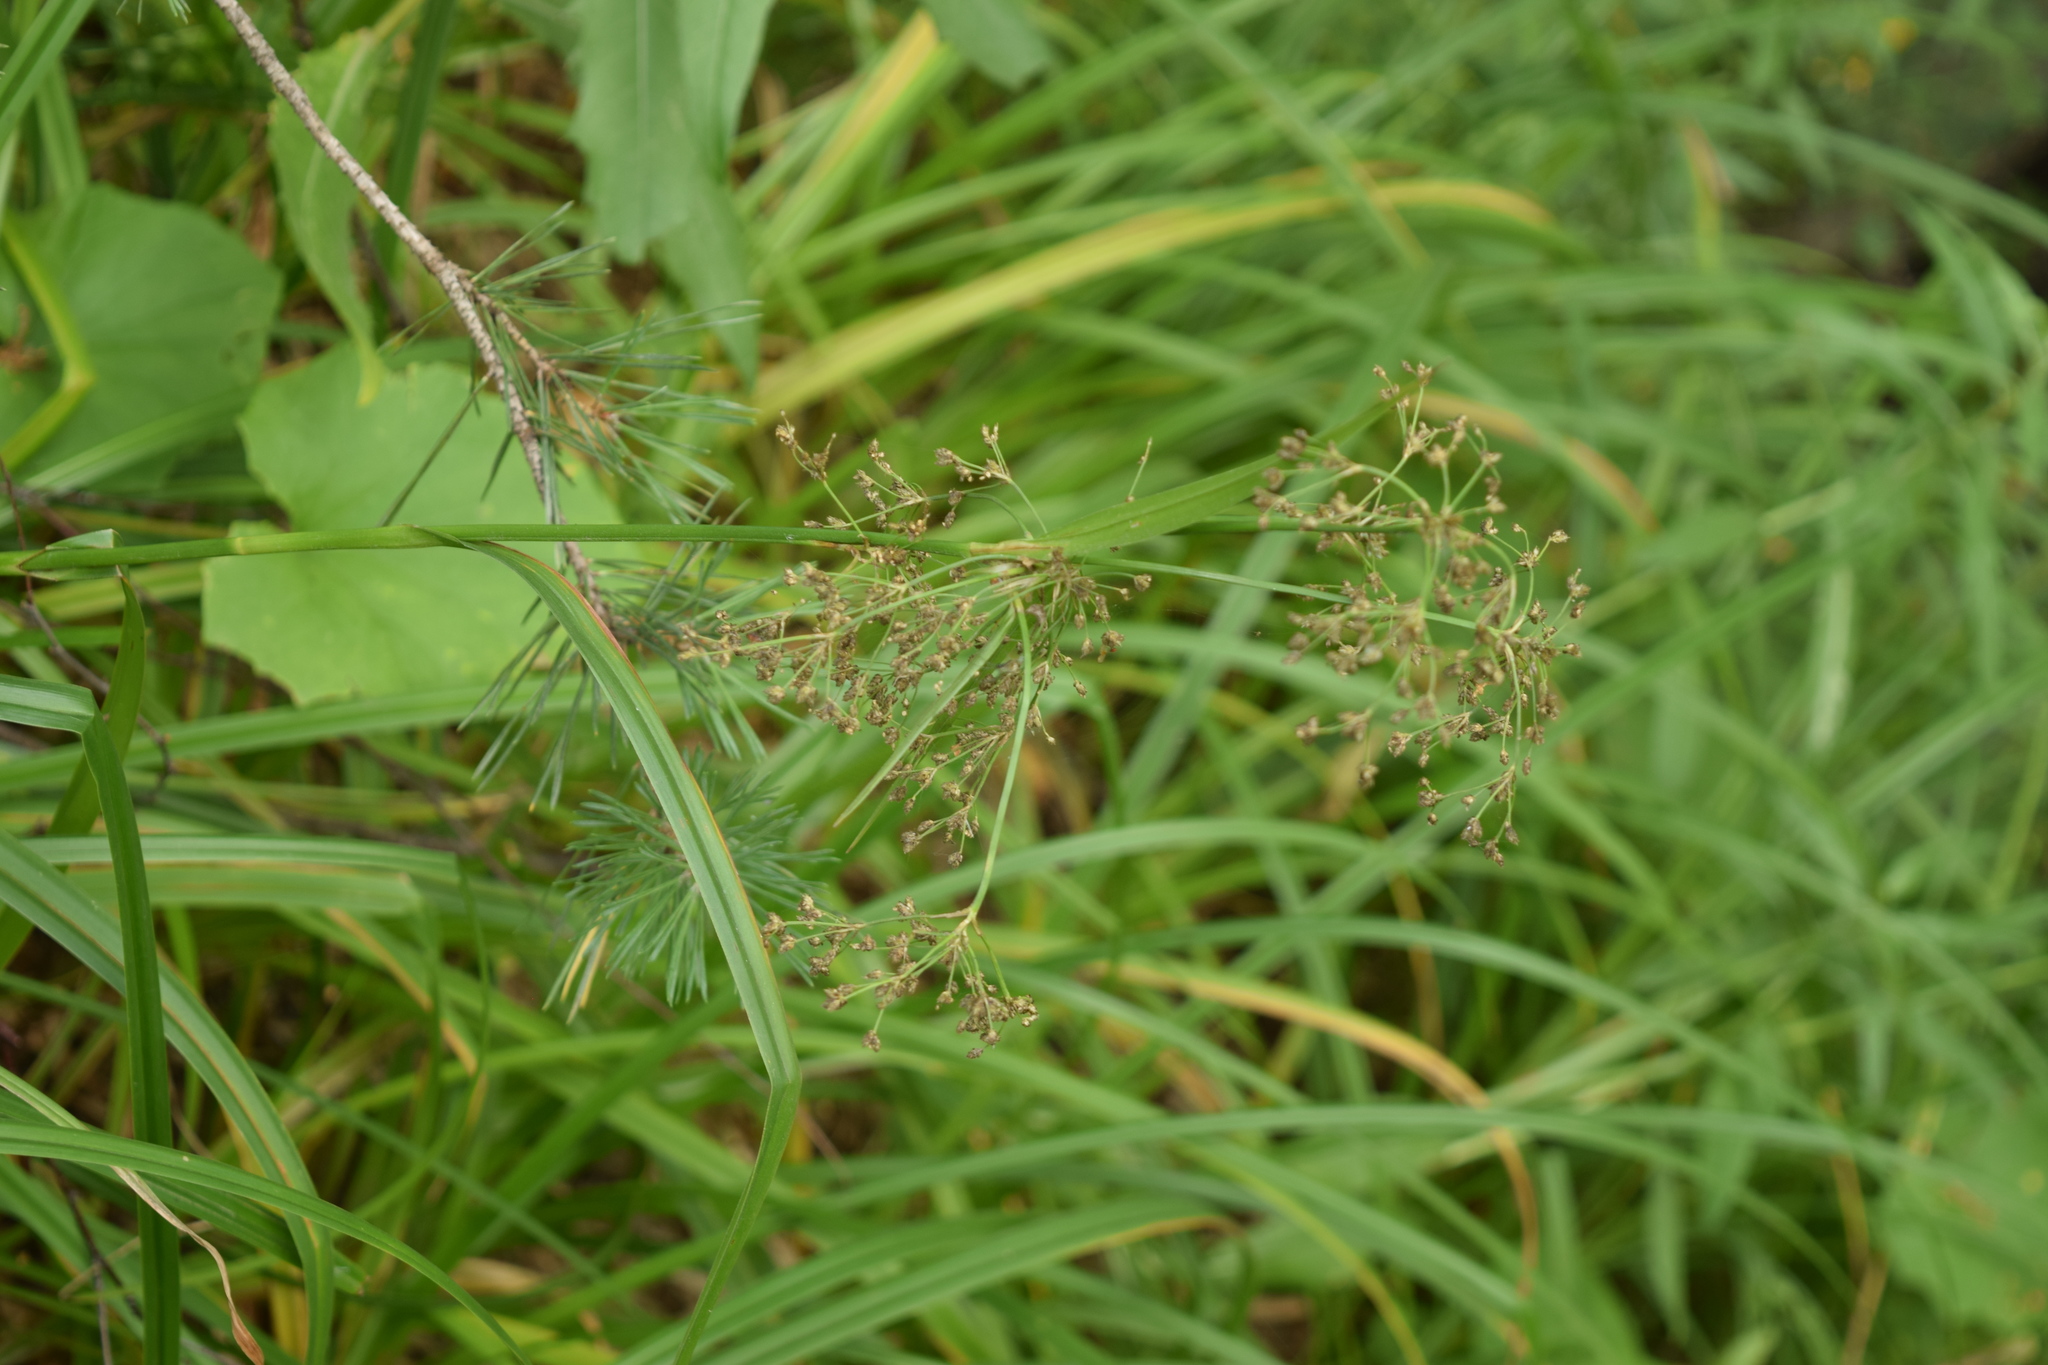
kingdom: Plantae
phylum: Tracheophyta
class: Liliopsida
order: Poales
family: Cyperaceae
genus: Scirpus
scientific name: Scirpus sylvaticus
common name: Wood club-rush
